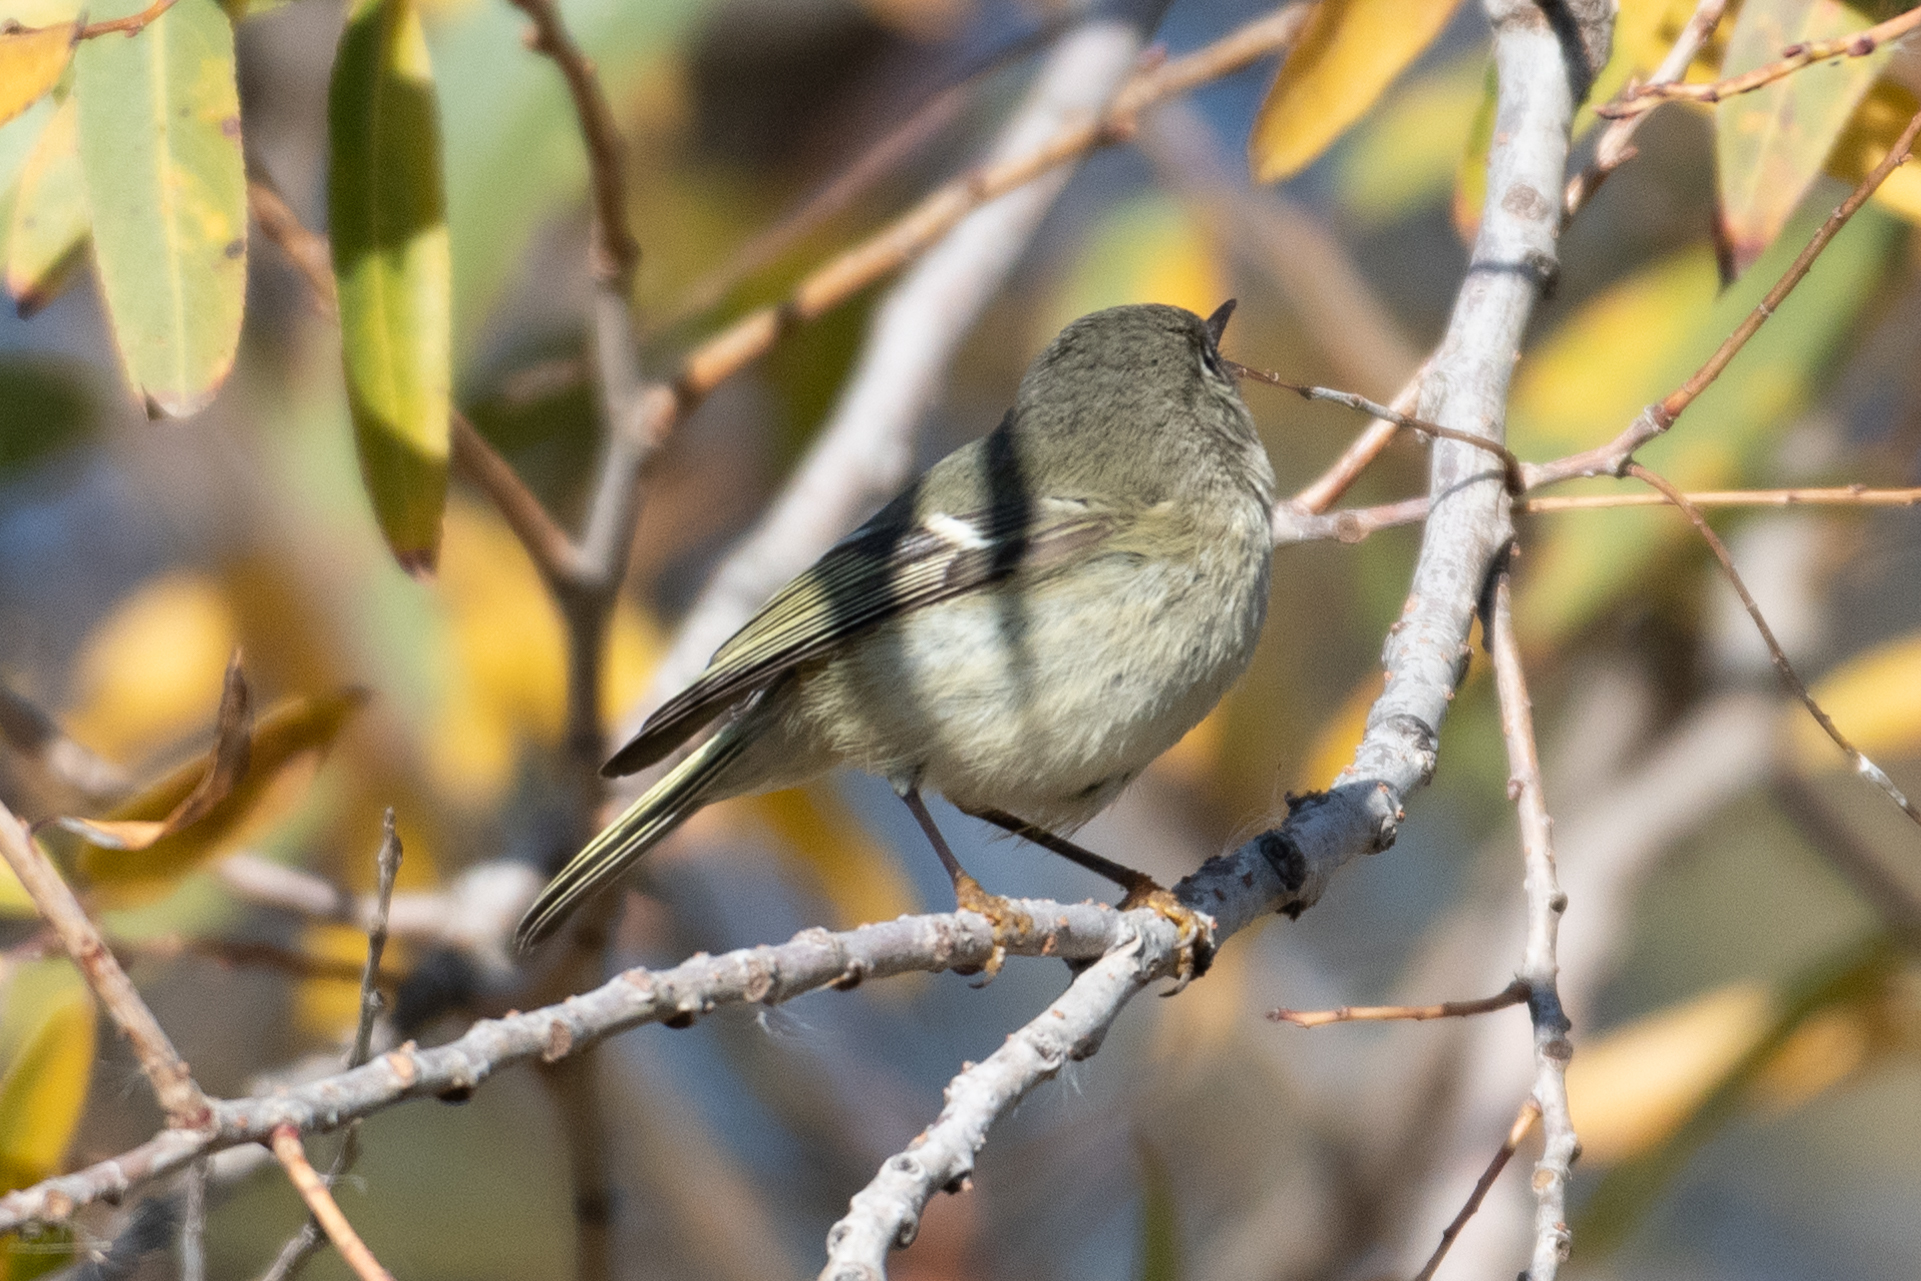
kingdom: Animalia
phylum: Chordata
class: Aves
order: Passeriformes
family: Regulidae
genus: Regulus
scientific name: Regulus calendula
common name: Ruby-crowned kinglet
